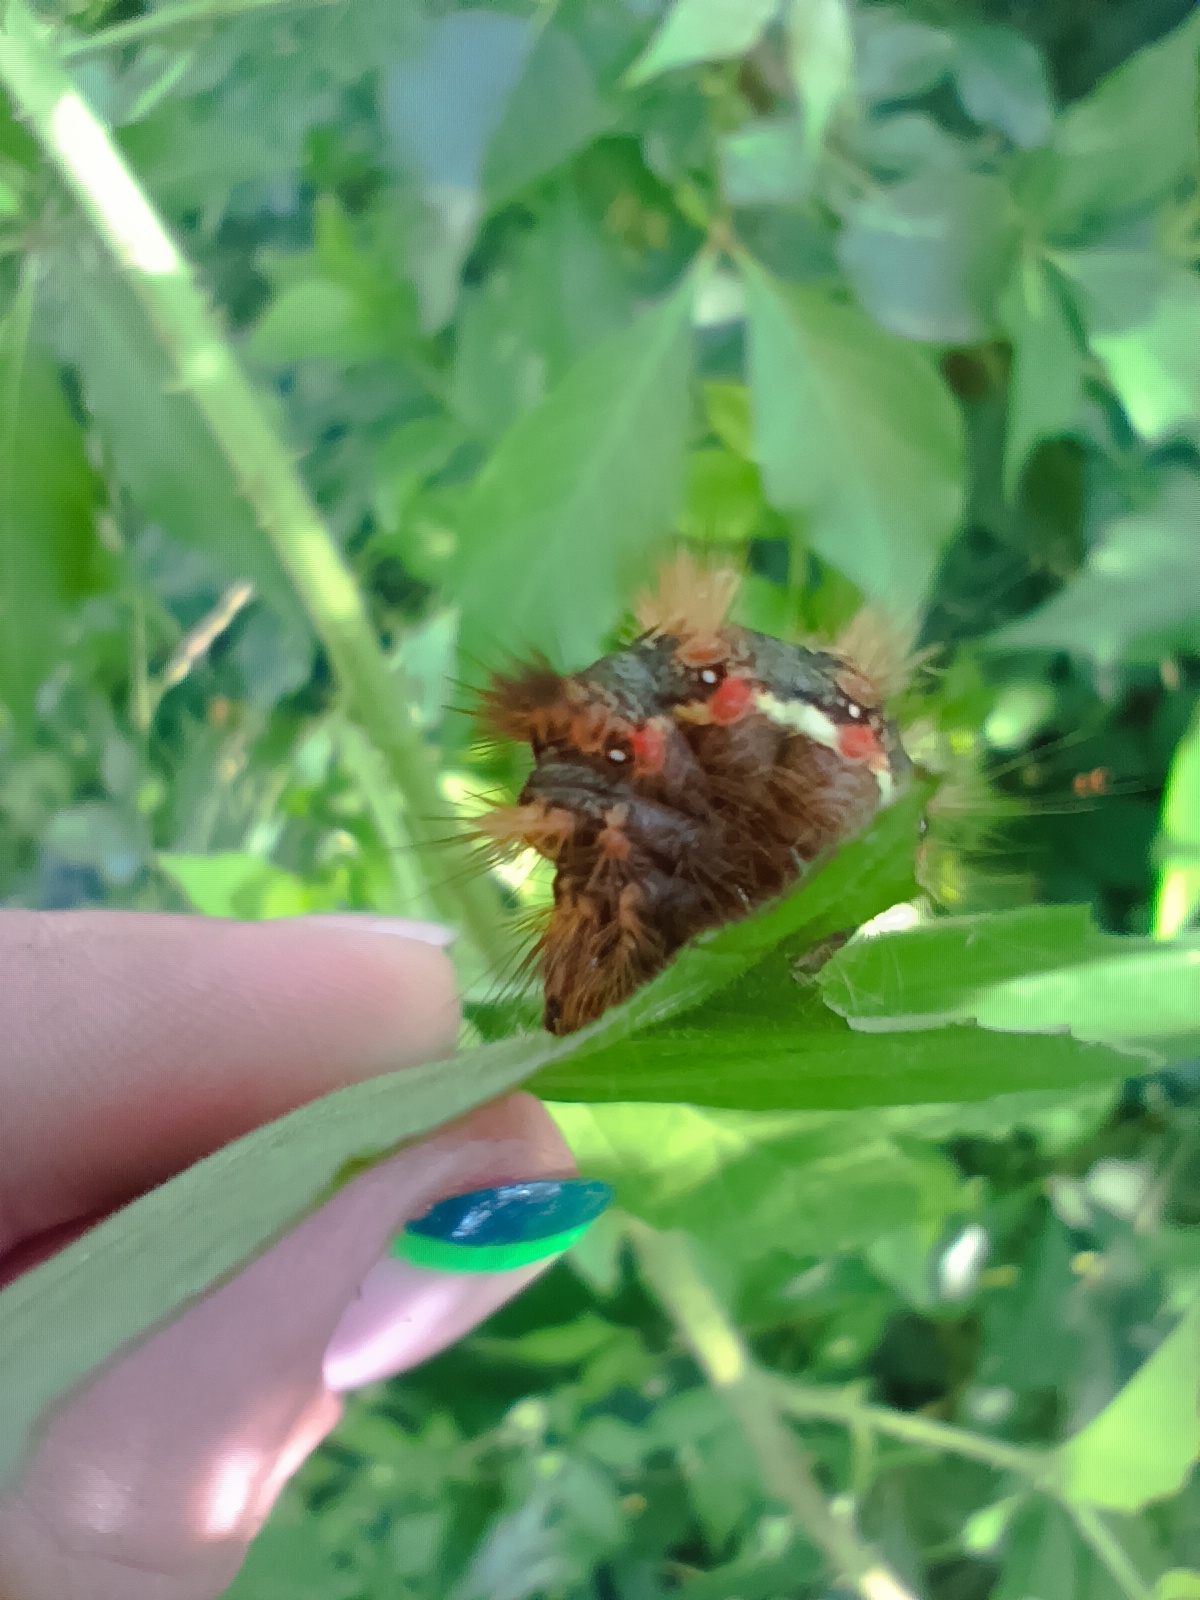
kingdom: Animalia
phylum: Arthropoda
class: Insecta
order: Lepidoptera
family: Noctuidae
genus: Acronicta
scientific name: Acronicta rumicis
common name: Knot grass
